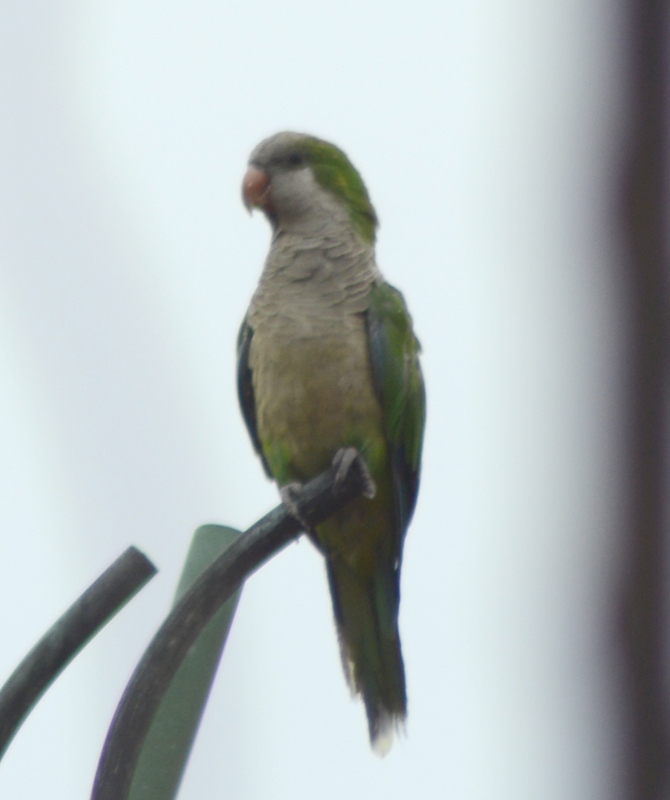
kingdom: Animalia
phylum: Chordata
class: Aves
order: Psittaciformes
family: Psittacidae
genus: Myiopsitta
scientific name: Myiopsitta monachus
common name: Monk parakeet
